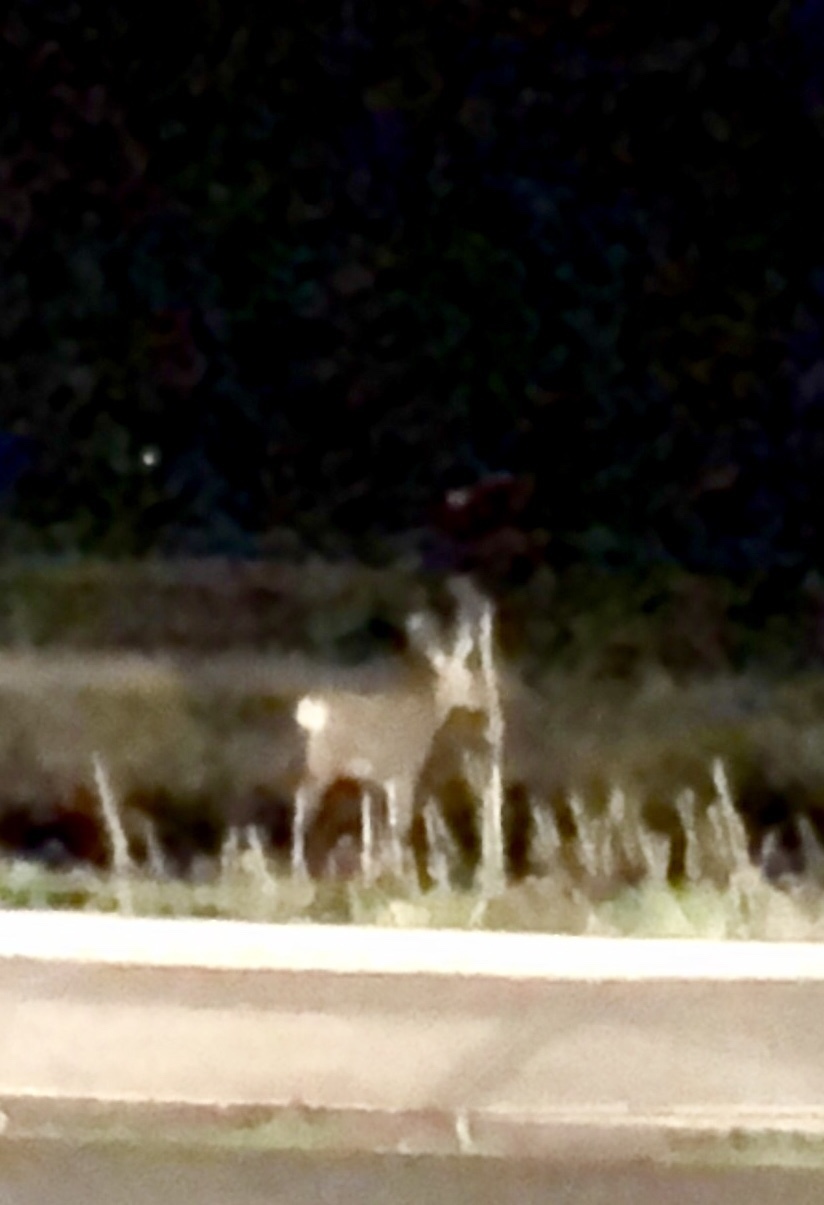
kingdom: Animalia
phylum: Chordata
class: Mammalia
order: Artiodactyla
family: Cervidae
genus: Odocoileus
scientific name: Odocoileus hemionus
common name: Mule deer
